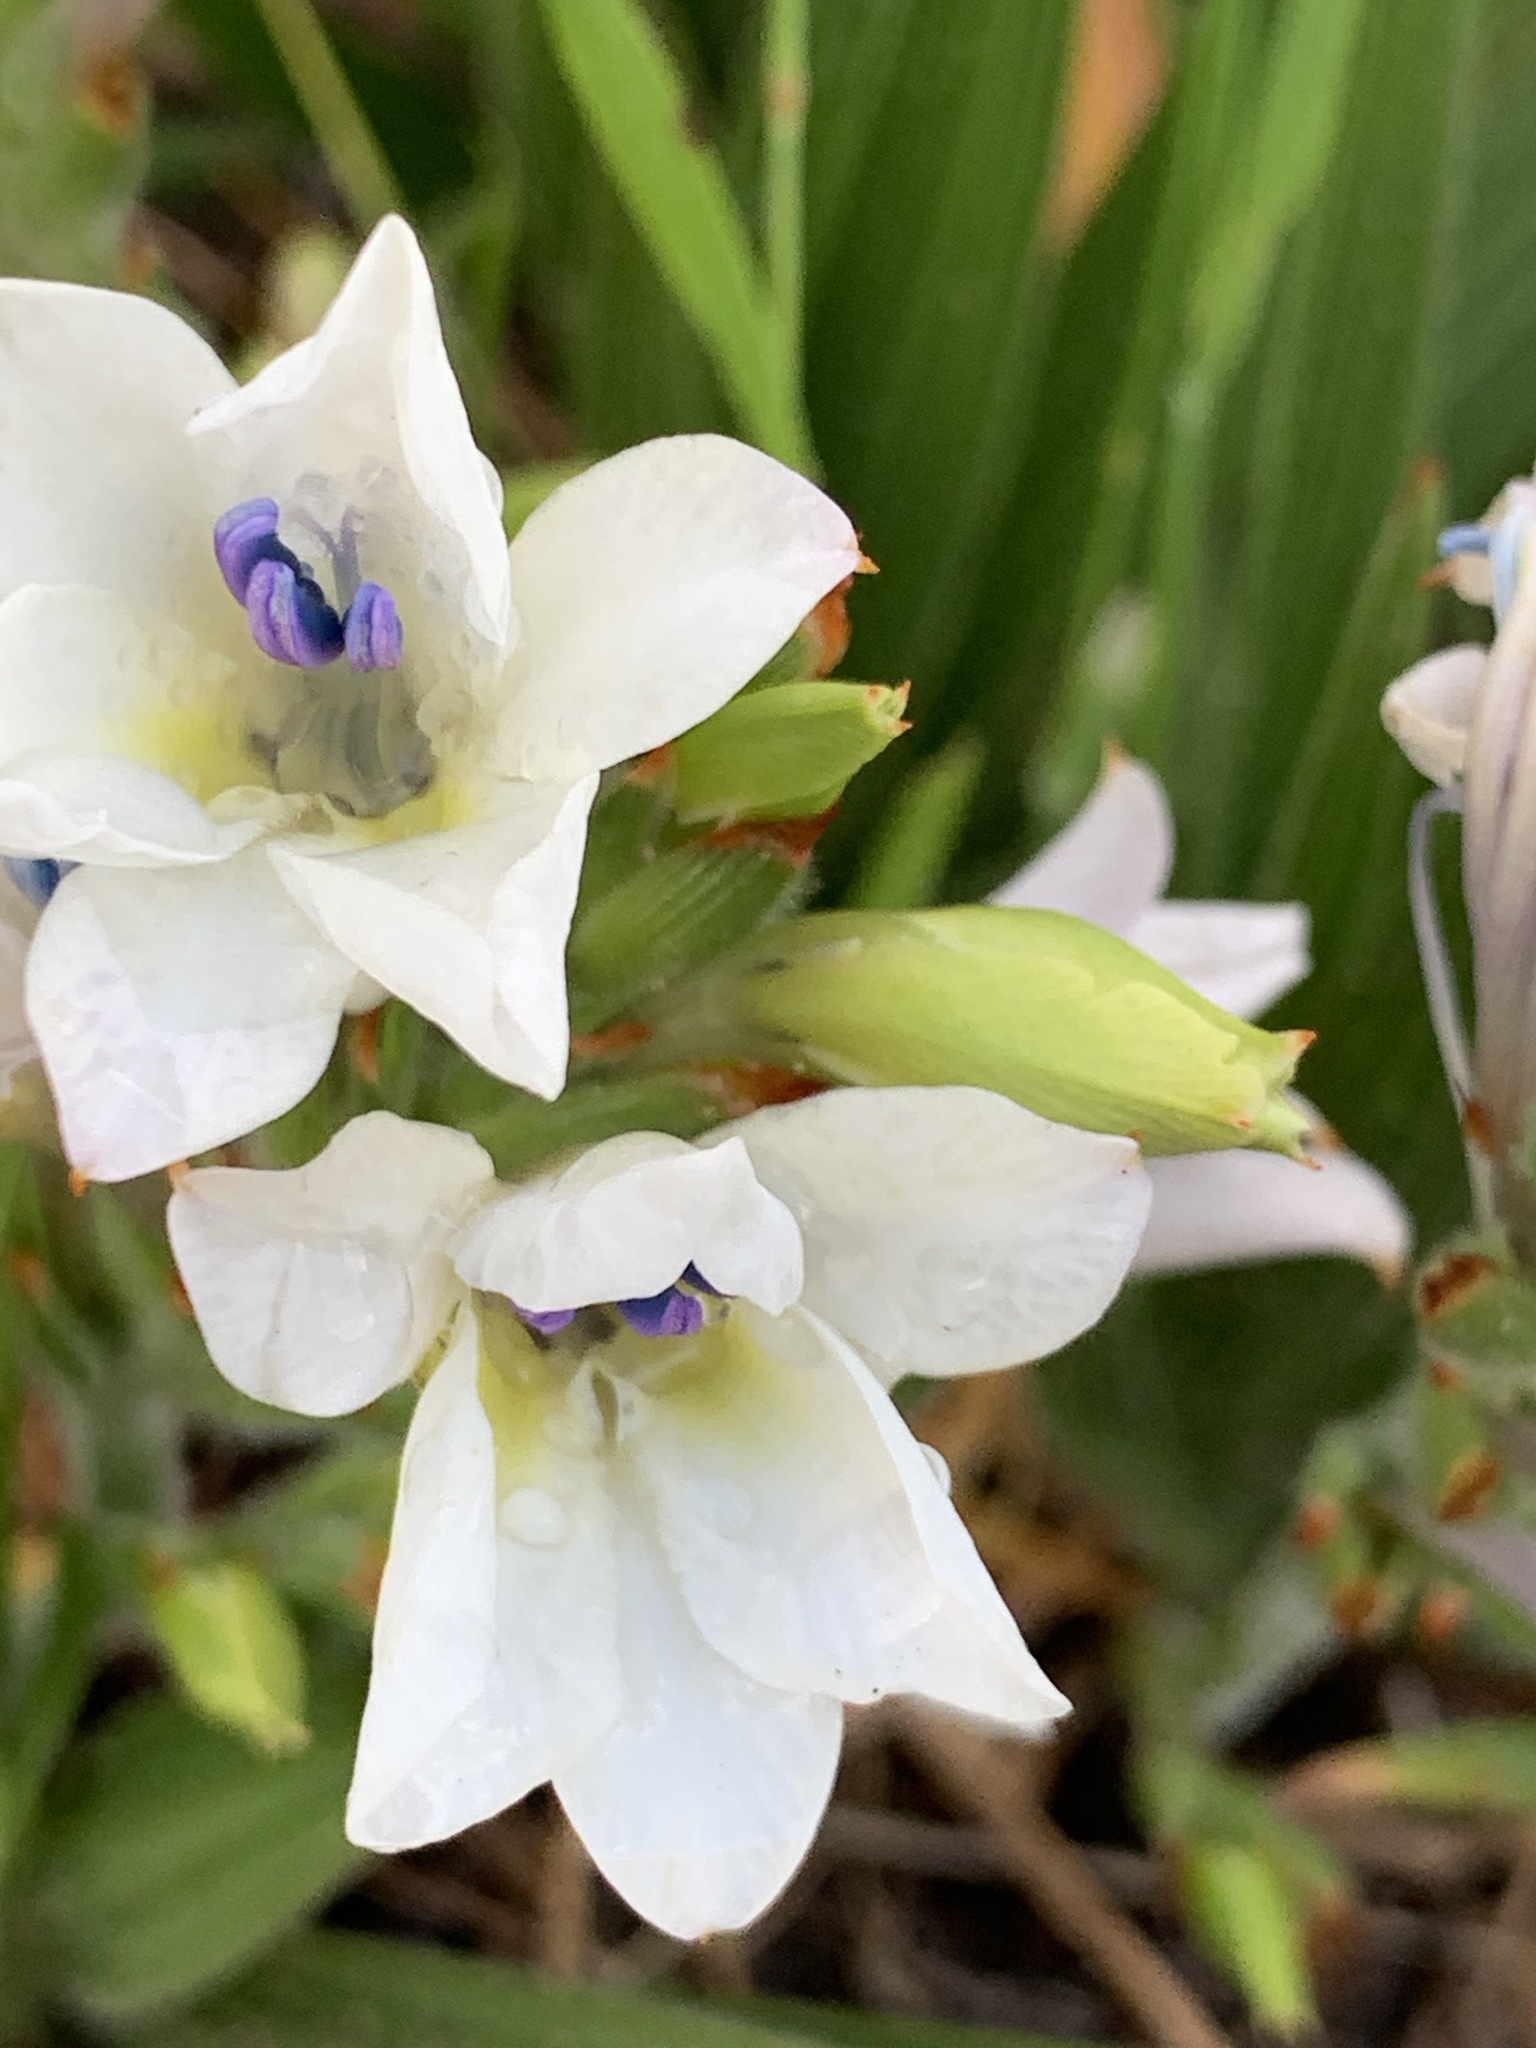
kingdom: Plantae
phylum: Tracheophyta
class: Liliopsida
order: Asparagales
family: Iridaceae
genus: Babiana
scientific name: Babiana nervosa
